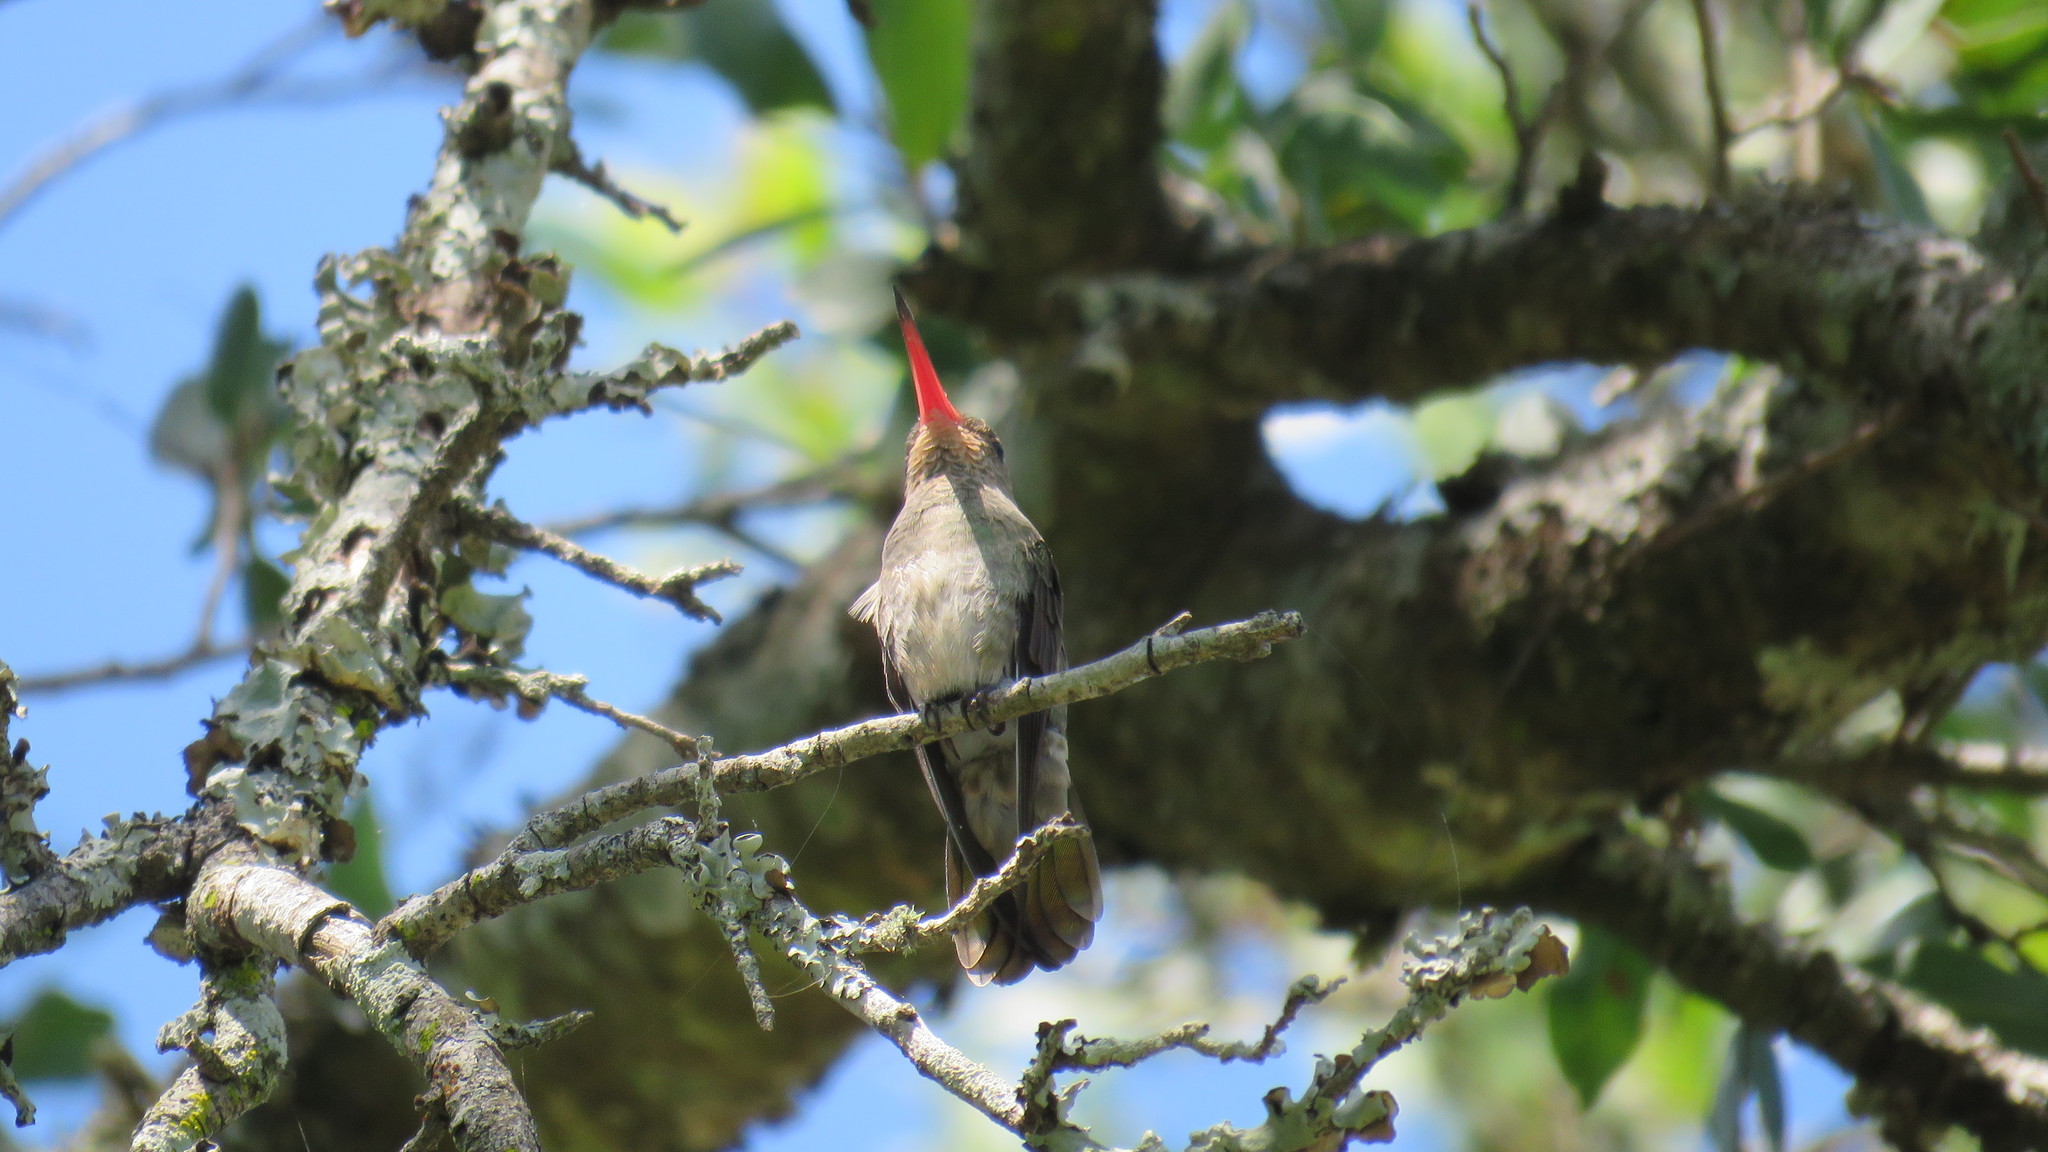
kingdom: Animalia
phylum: Chordata
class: Aves
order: Apodiformes
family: Trochilidae
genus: Hylocharis
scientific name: Hylocharis chrysura
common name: Gilded sapphire
